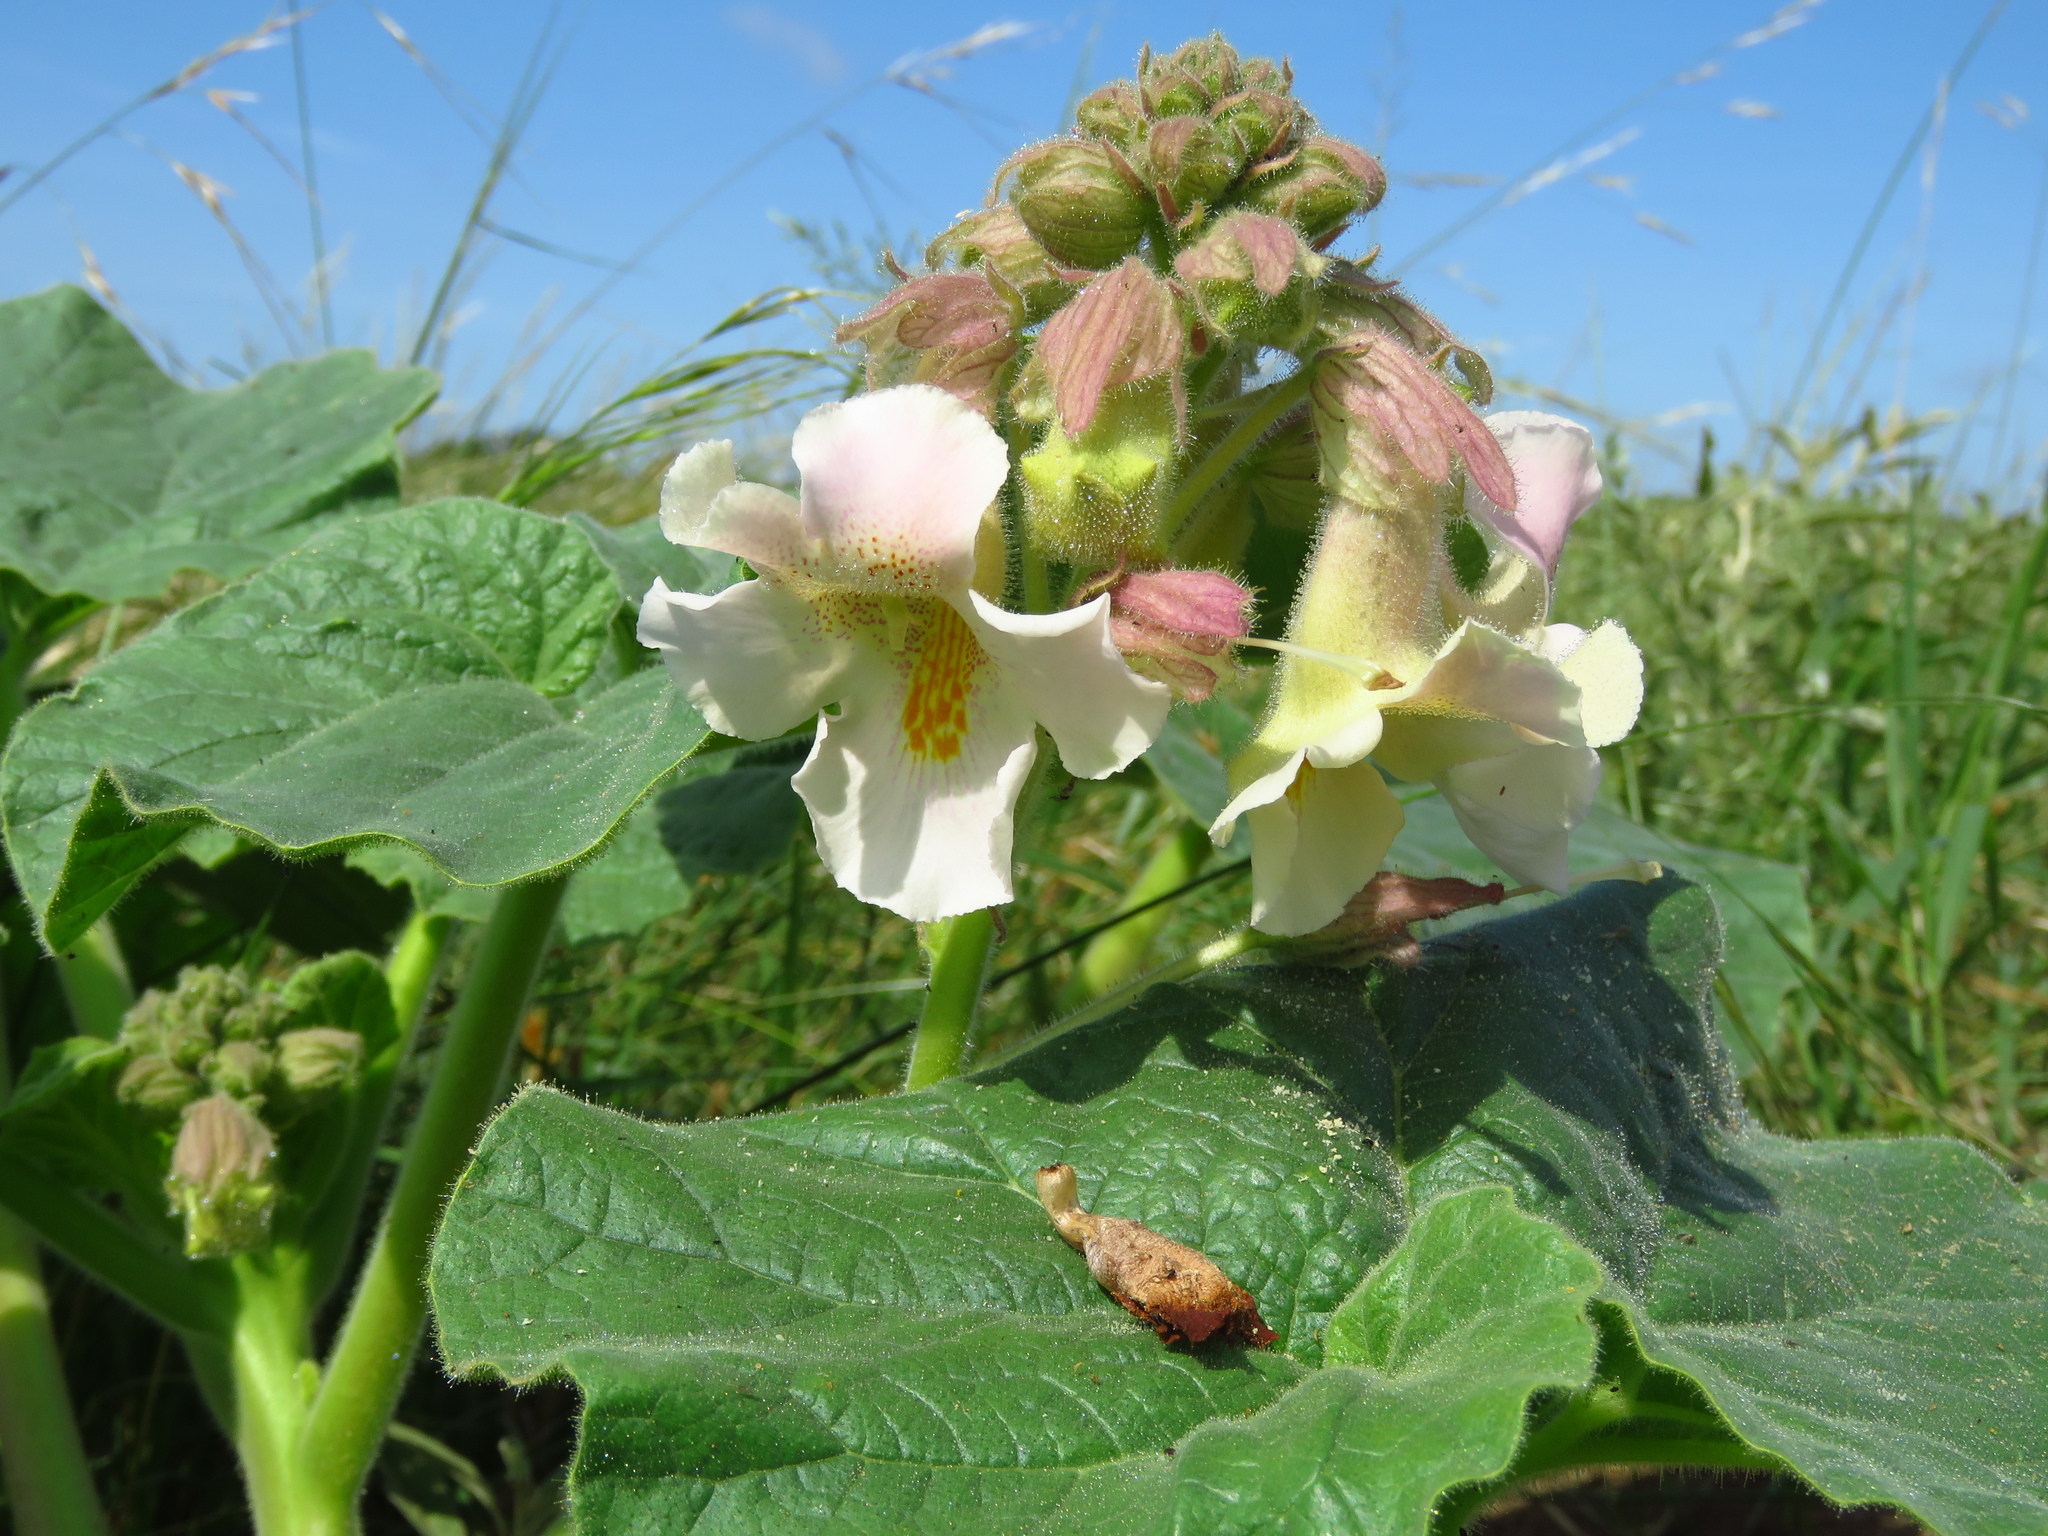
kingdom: Plantae
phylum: Tracheophyta
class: Magnoliopsida
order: Lamiales
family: Martyniaceae
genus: Proboscidea
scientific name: Proboscidea louisianica
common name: Elephant tusks
